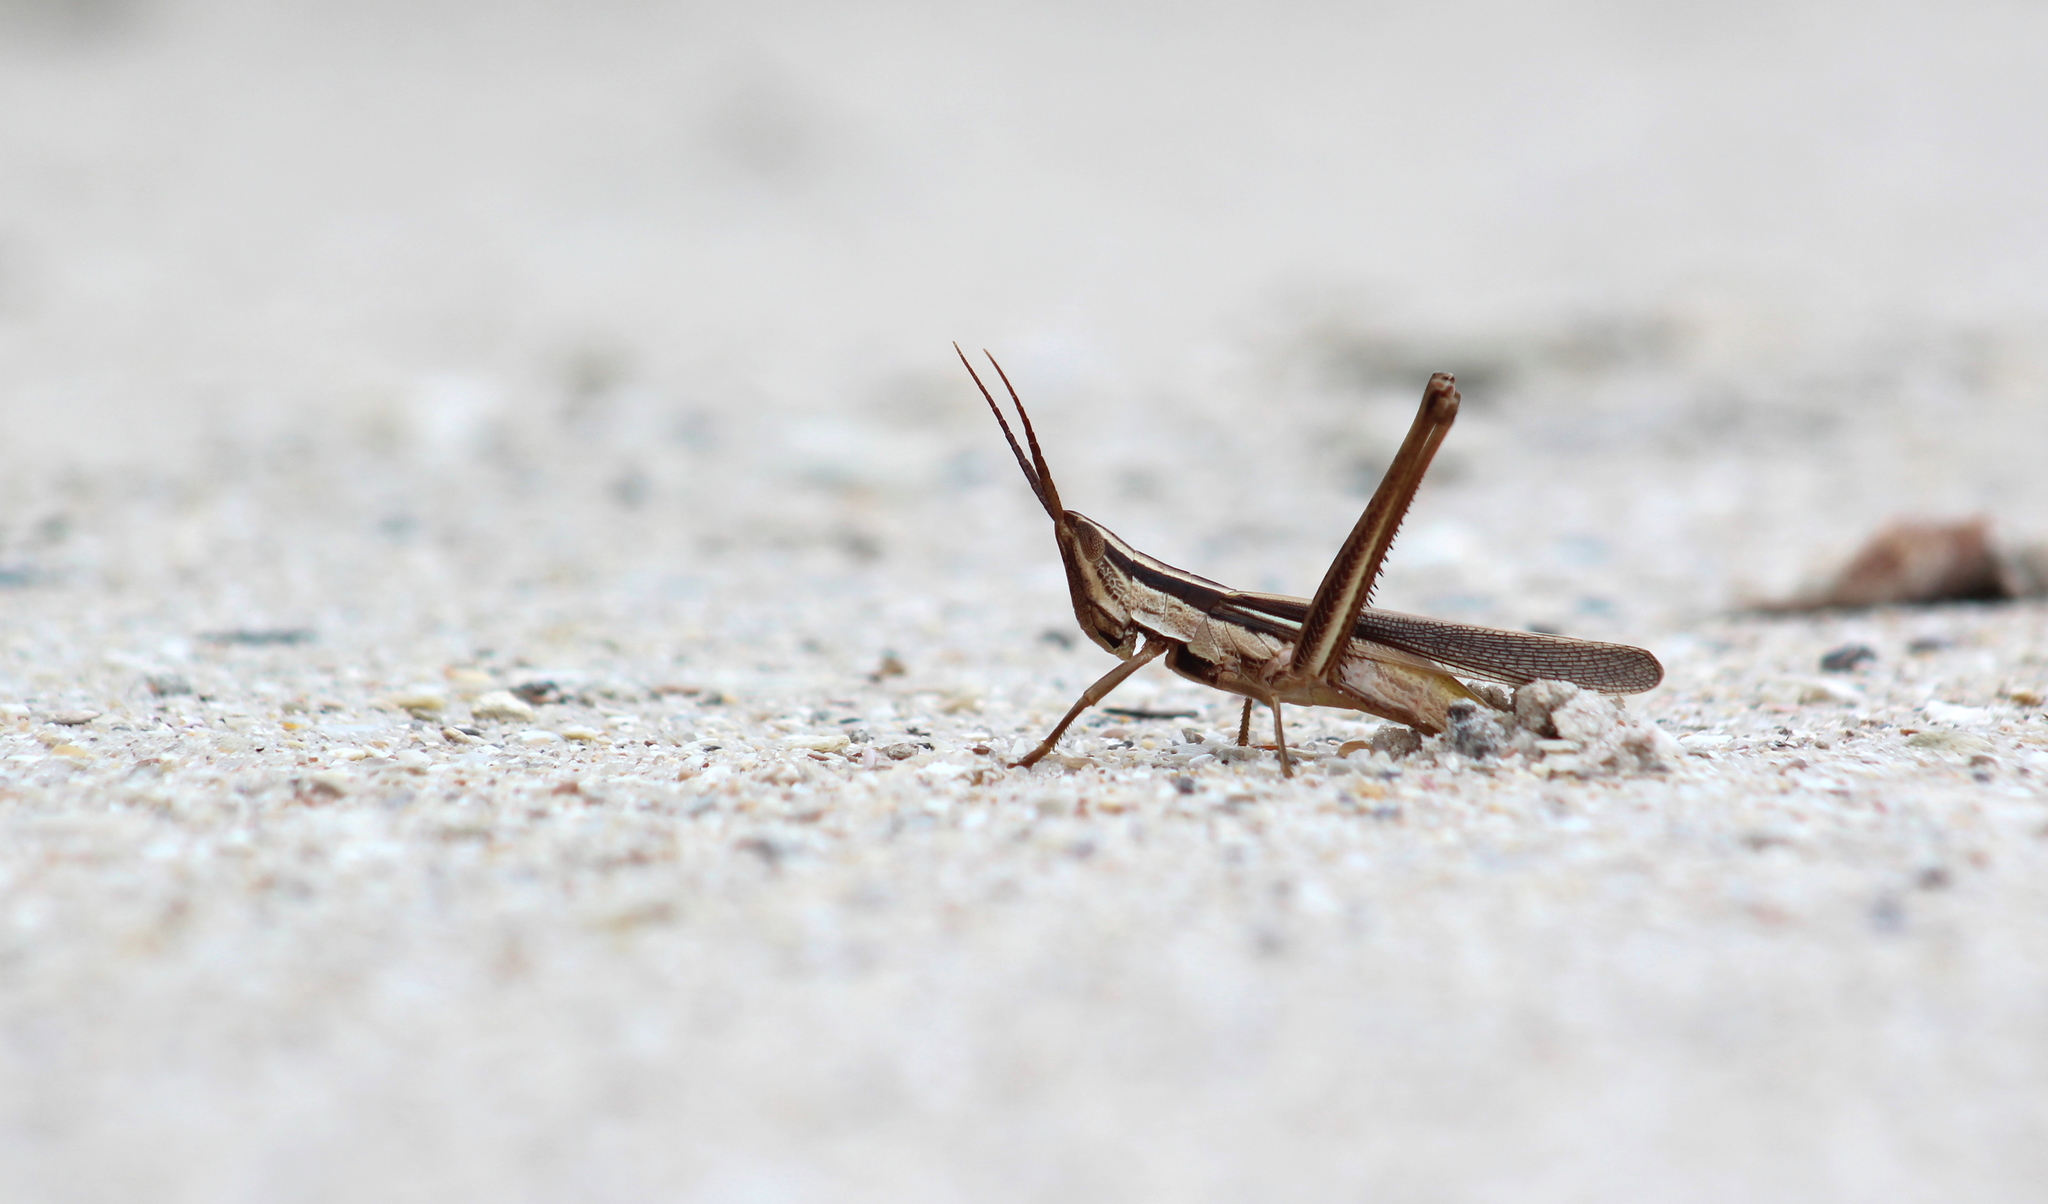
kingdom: Animalia
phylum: Arthropoda
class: Insecta
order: Orthoptera
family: Acrididae
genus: Mermiria
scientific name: Mermiria intertexta
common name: Eastern mermiria grasshopper
